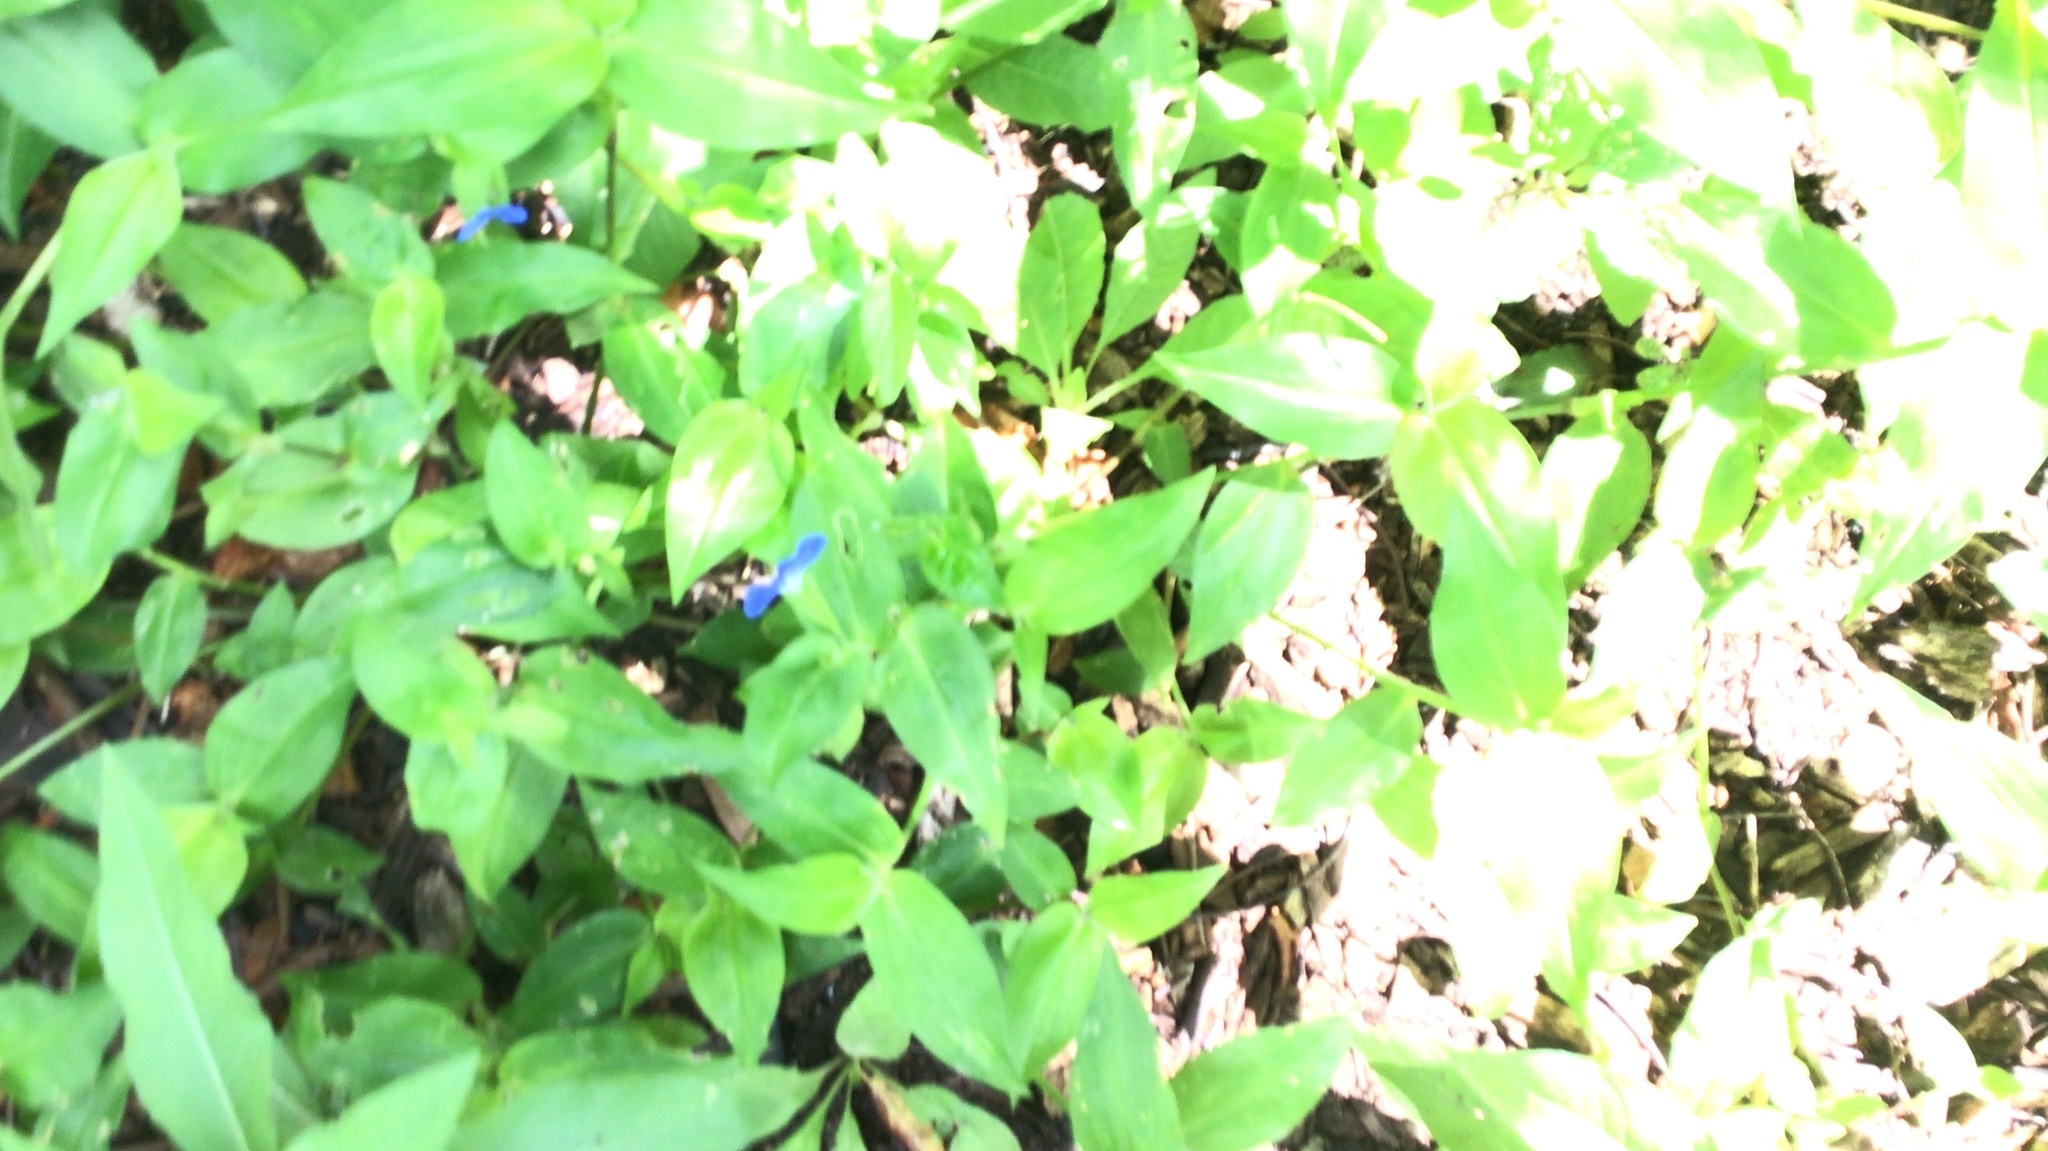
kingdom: Plantae
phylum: Tracheophyta
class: Liliopsida
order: Commelinales
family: Commelinaceae
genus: Commelina
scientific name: Commelina communis
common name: Asiatic dayflower
